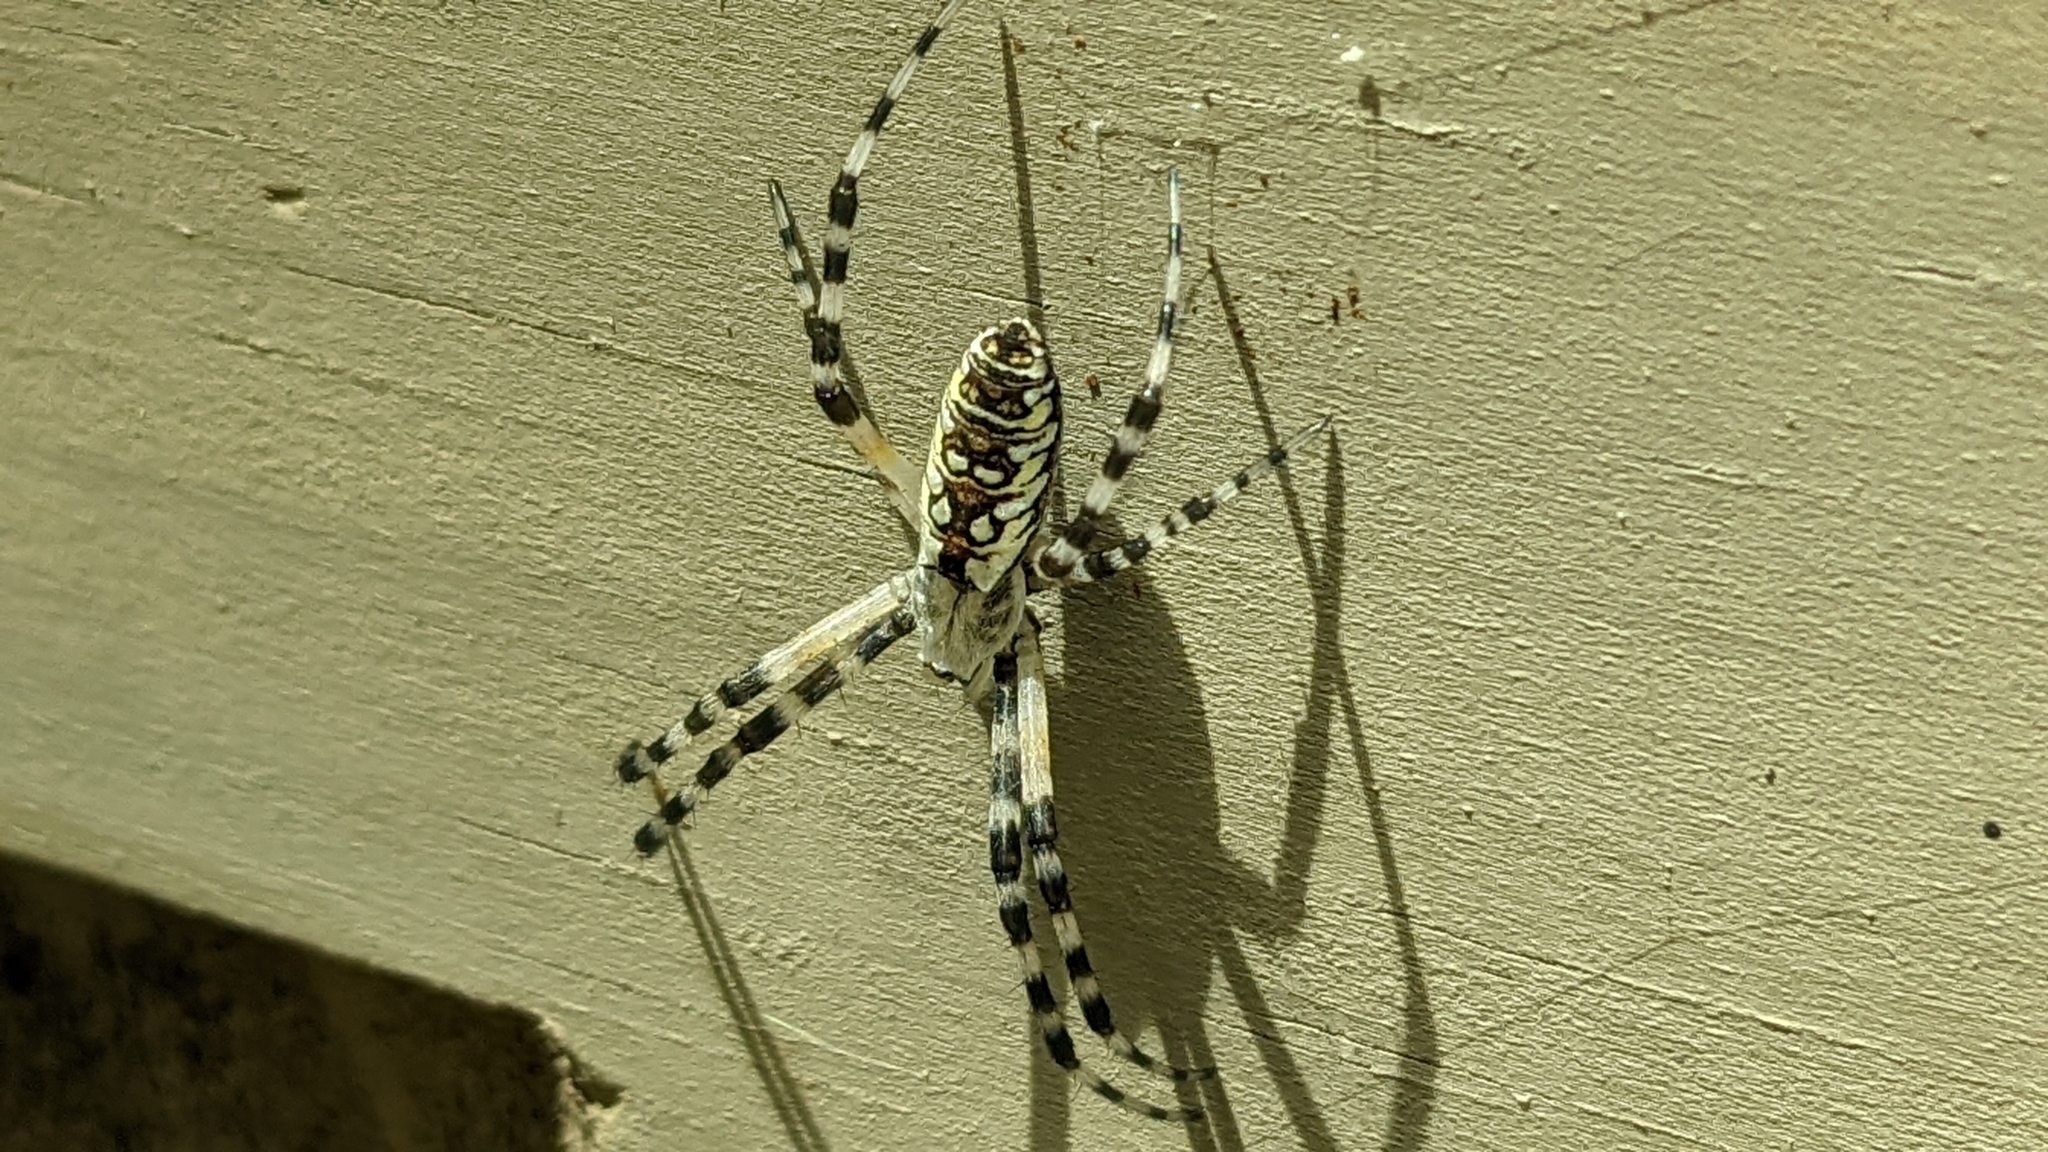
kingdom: Animalia
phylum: Arthropoda
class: Arachnida
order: Araneae
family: Araneidae
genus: Argiope
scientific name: Argiope aurantia
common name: Orb weavers
